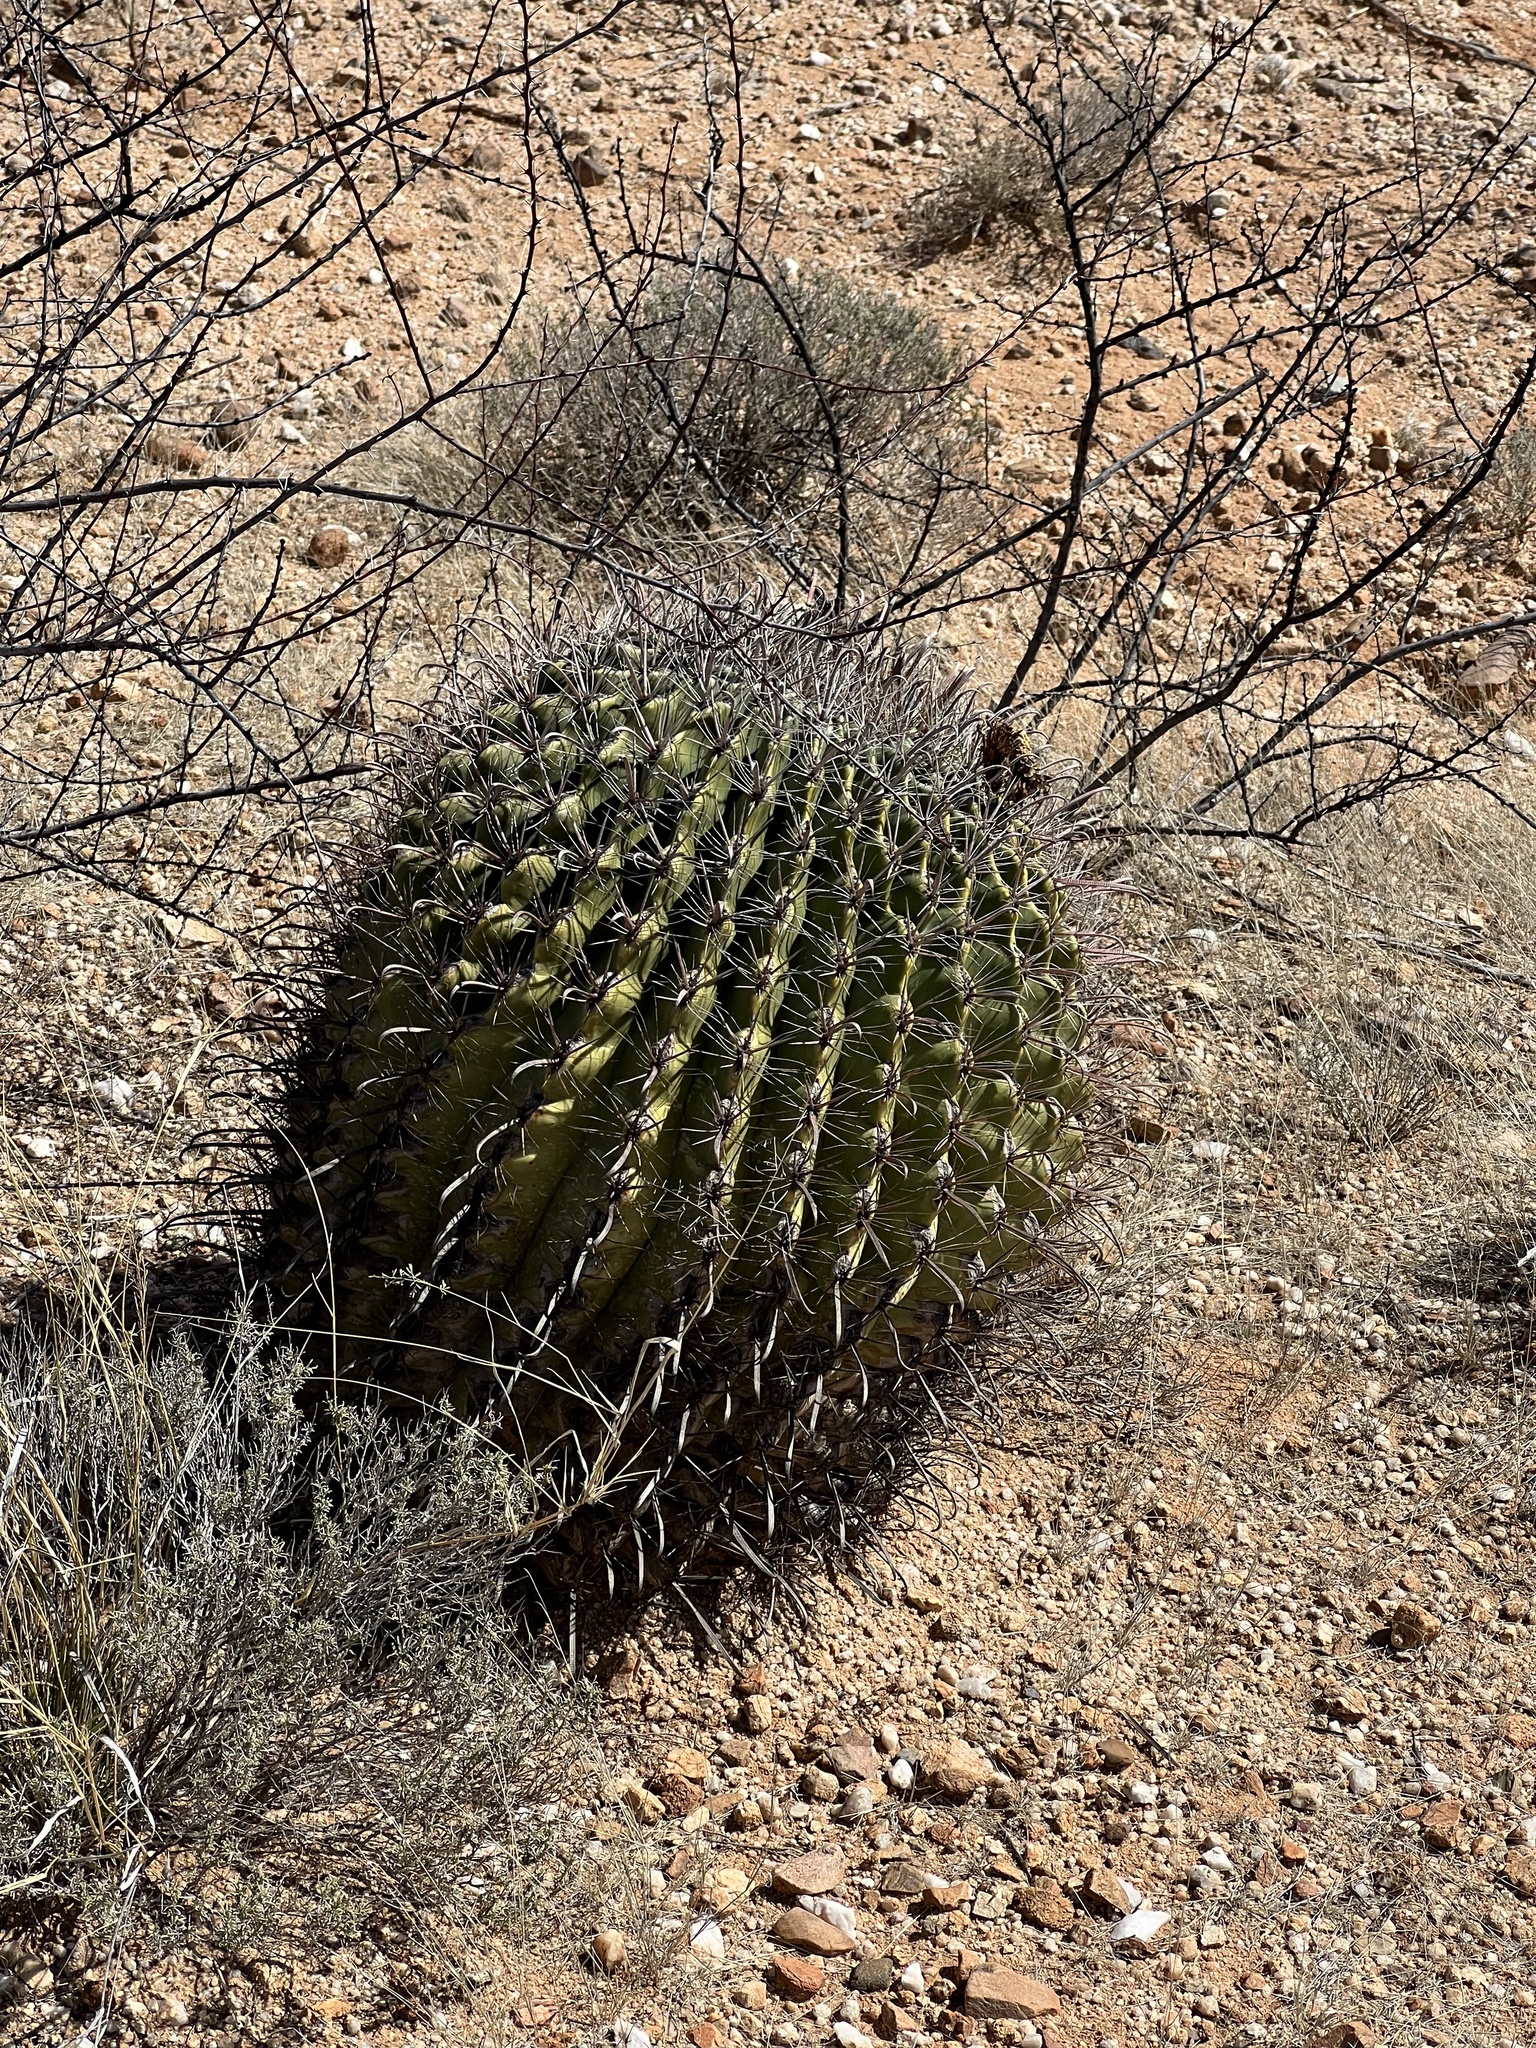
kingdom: Plantae
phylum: Tracheophyta
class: Magnoliopsida
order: Caryophyllales
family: Cactaceae
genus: Ferocactus
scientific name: Ferocactus wislizeni
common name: Candy barrel cactus
